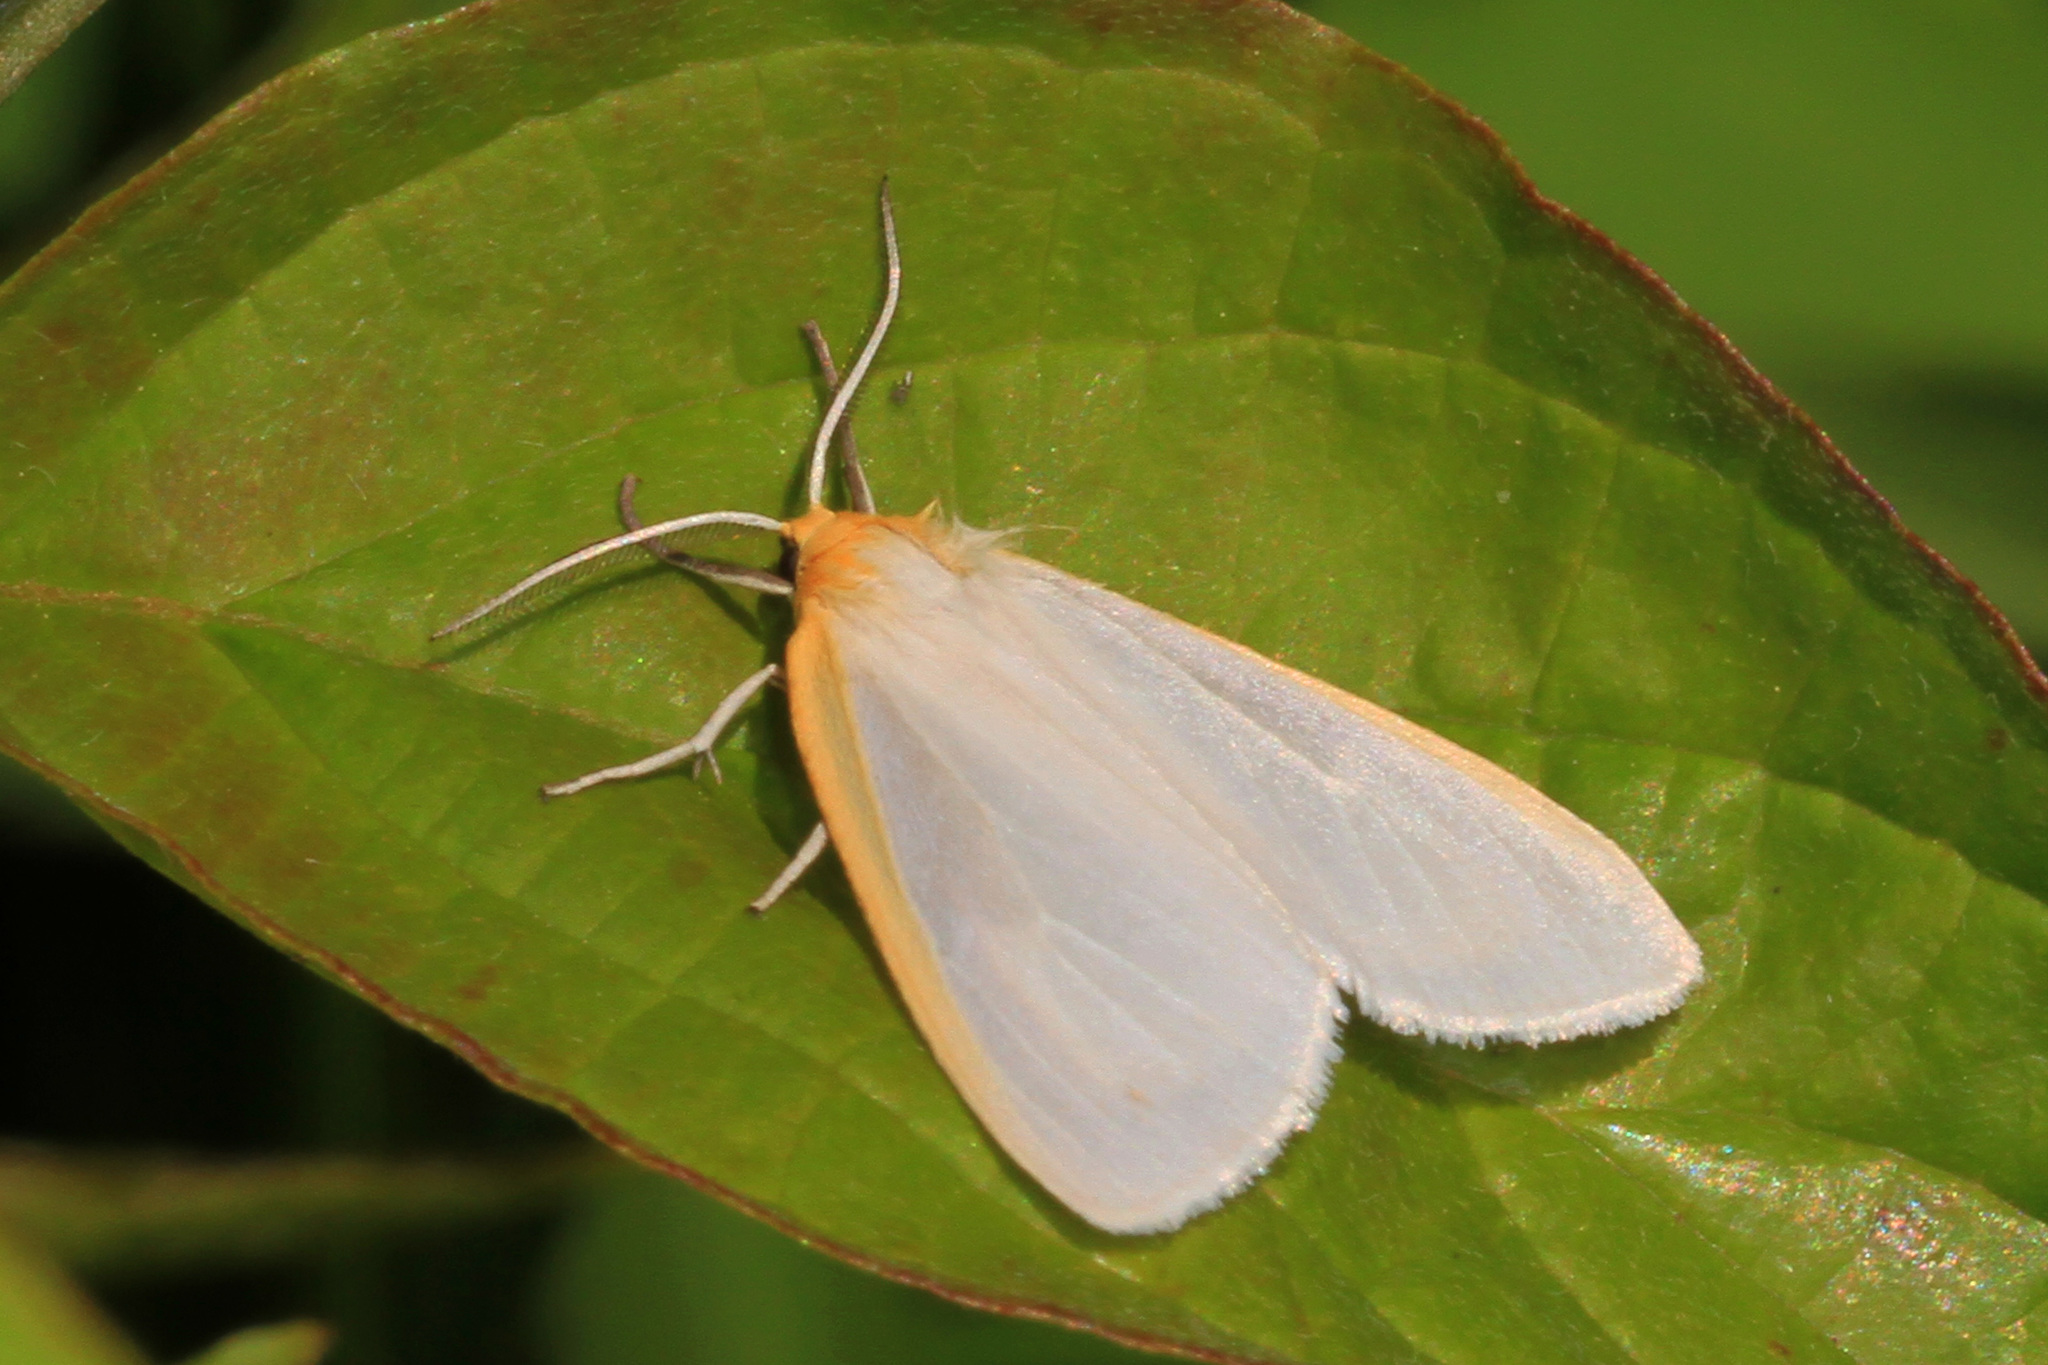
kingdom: Animalia
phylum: Arthropoda
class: Insecta
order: Lepidoptera
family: Erebidae
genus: Cycnia
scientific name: Cycnia tenera
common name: Delicate cycnia moth
